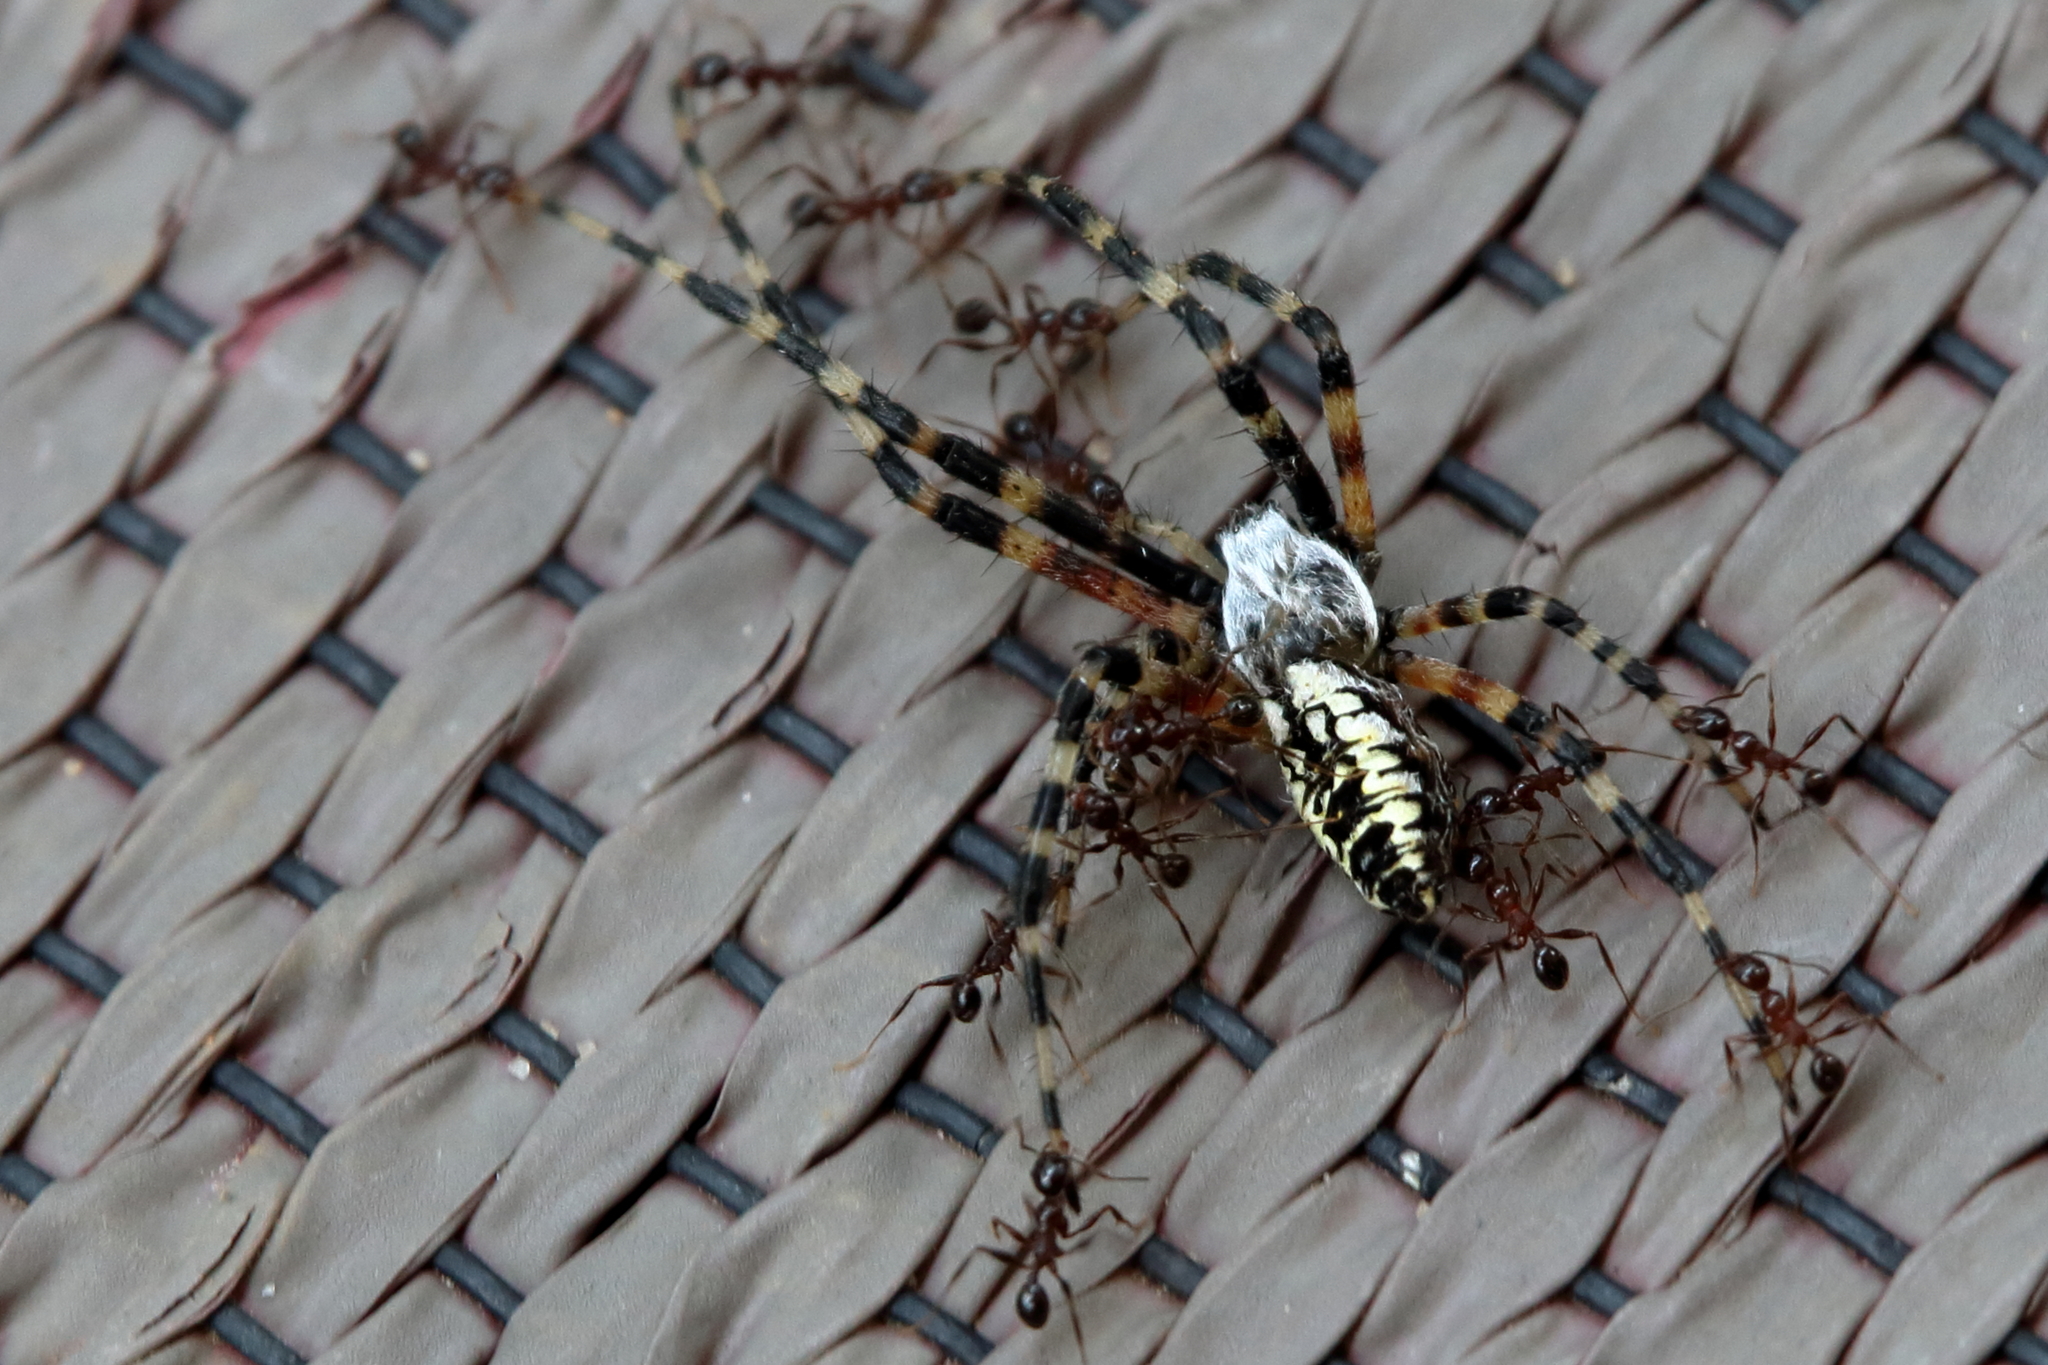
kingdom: Animalia
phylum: Arthropoda
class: Arachnida
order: Araneae
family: Araneidae
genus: Argiope
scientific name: Argiope aurantia
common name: Orb weavers
